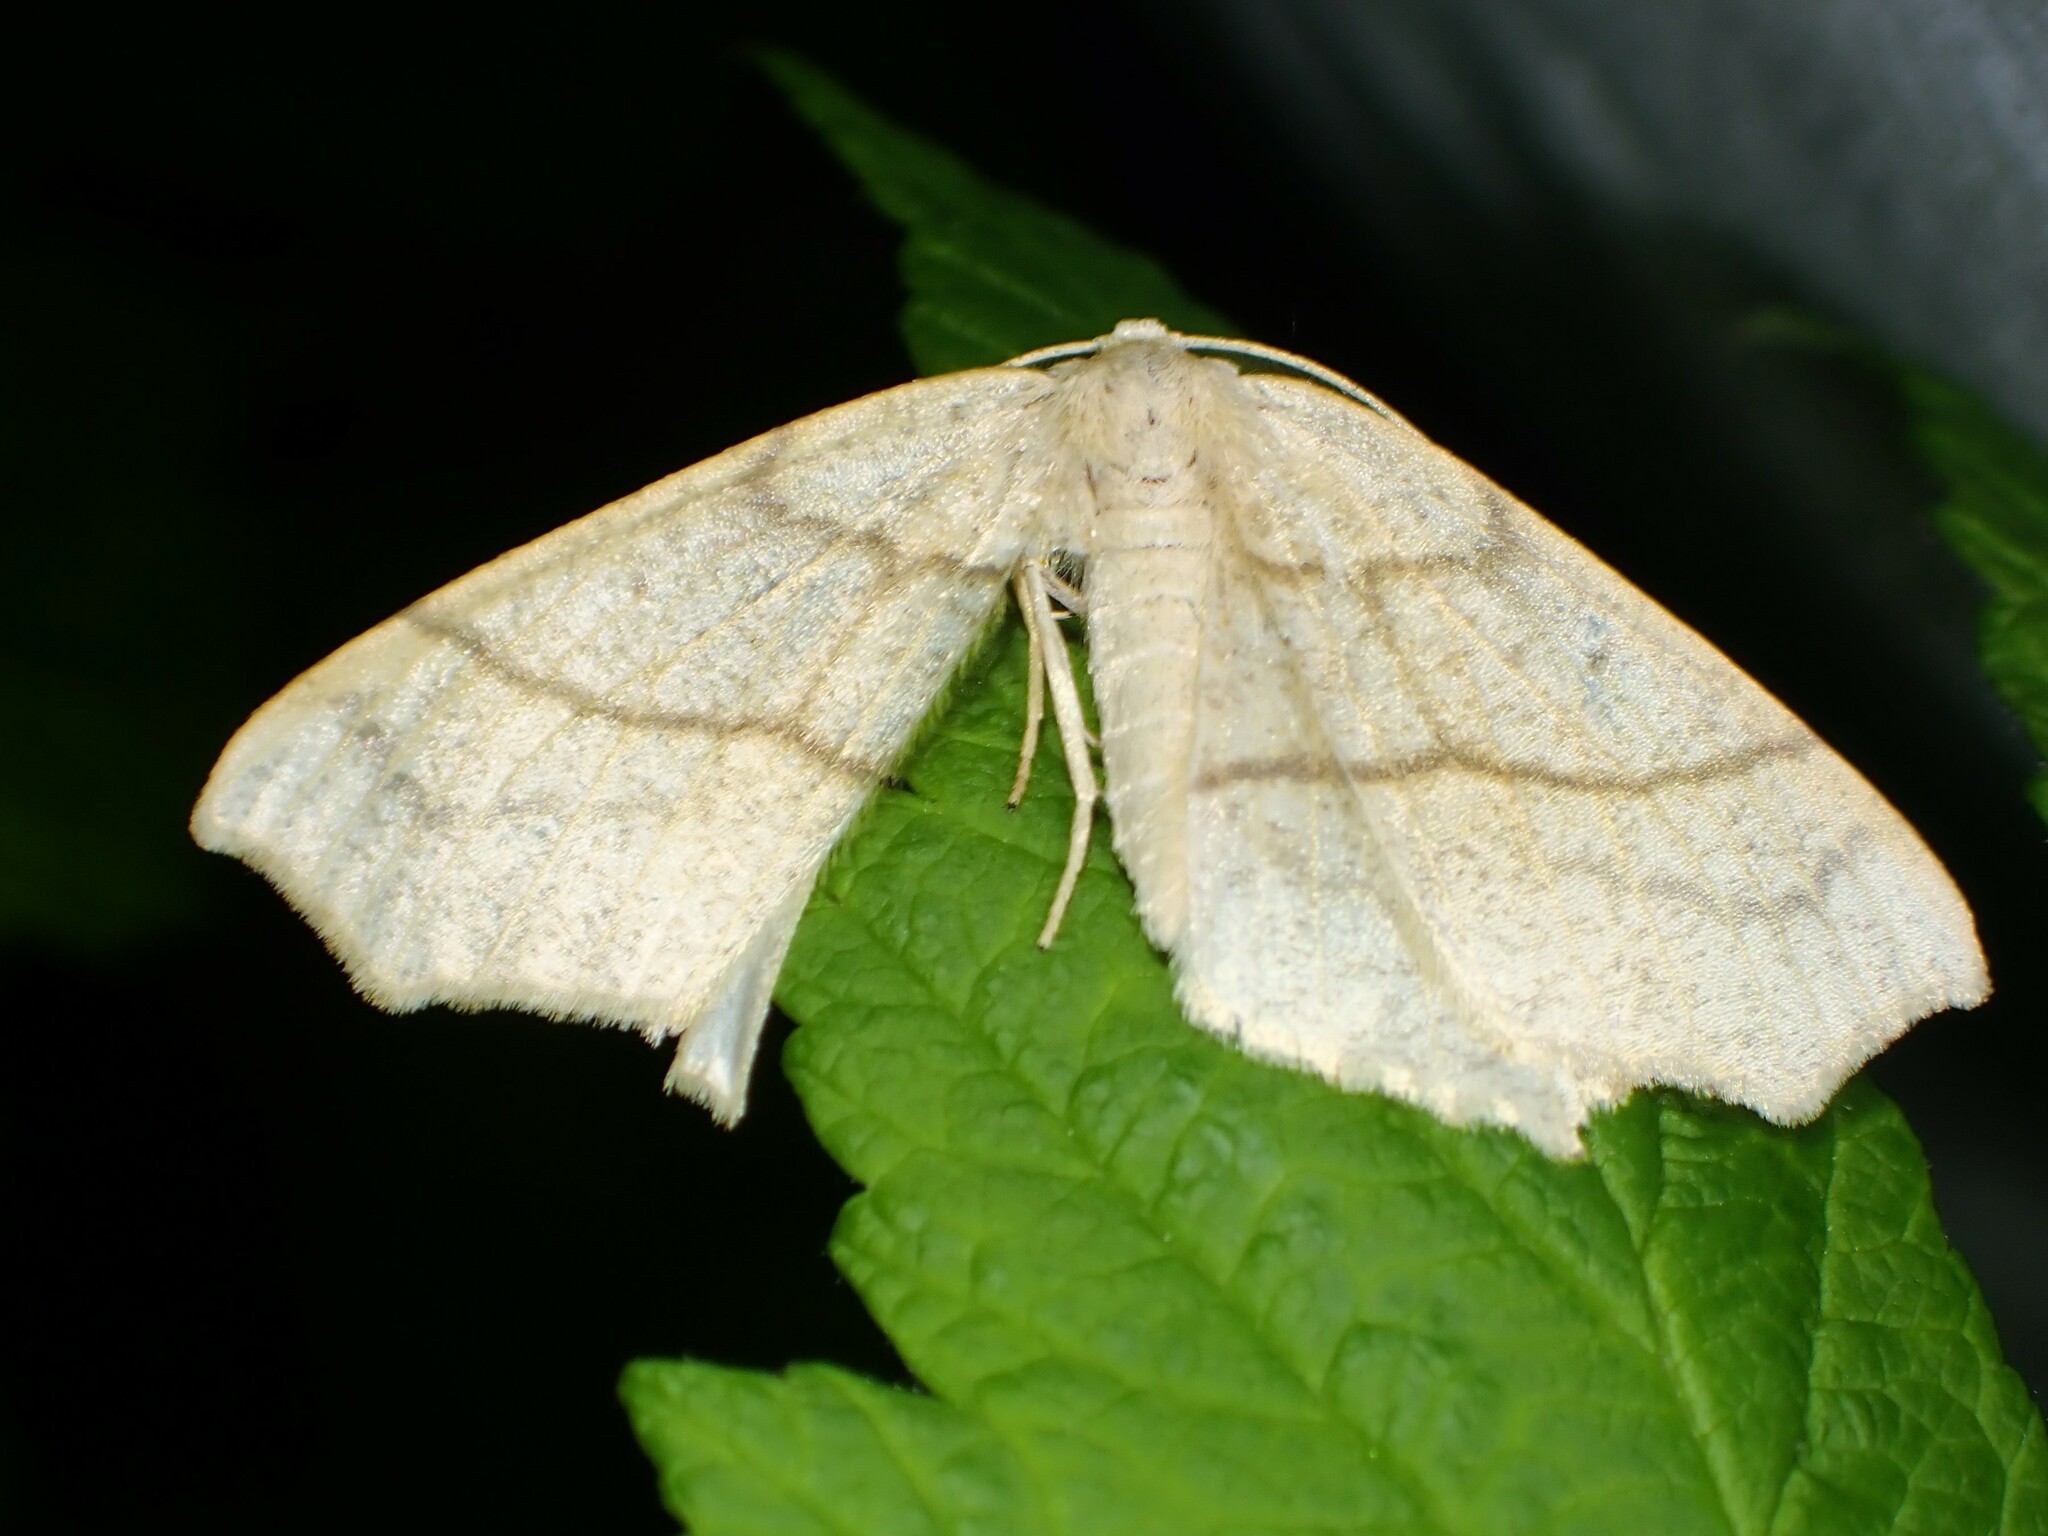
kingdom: Animalia
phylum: Arthropoda
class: Insecta
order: Lepidoptera
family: Geometridae
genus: Besma
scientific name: Besma quercivoraria
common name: Oak besma
